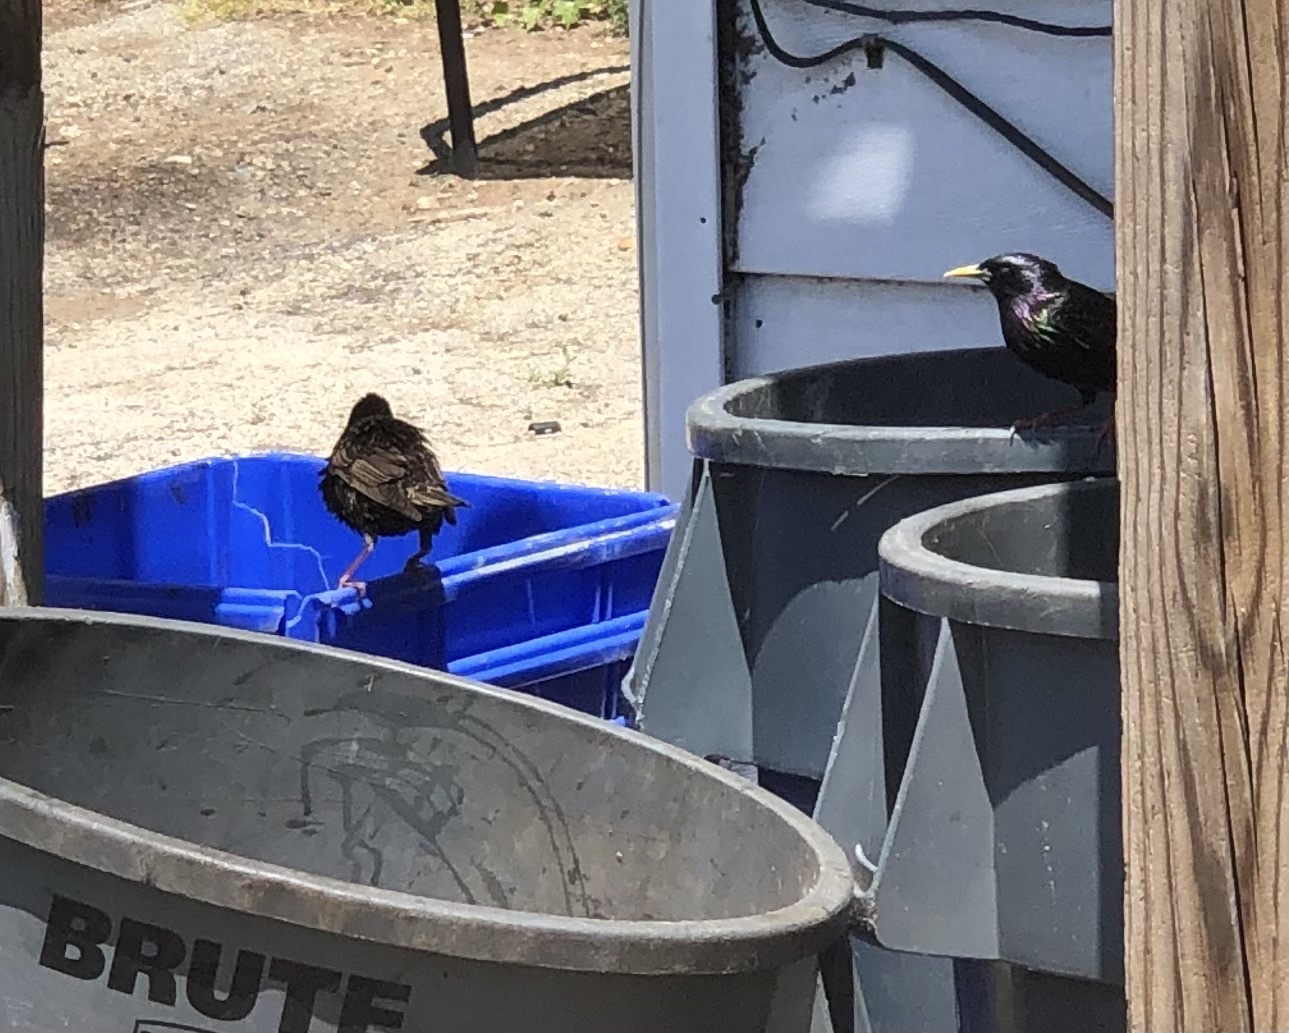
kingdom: Animalia
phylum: Chordata
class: Aves
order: Passeriformes
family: Sturnidae
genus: Sturnus
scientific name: Sturnus vulgaris
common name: Common starling
